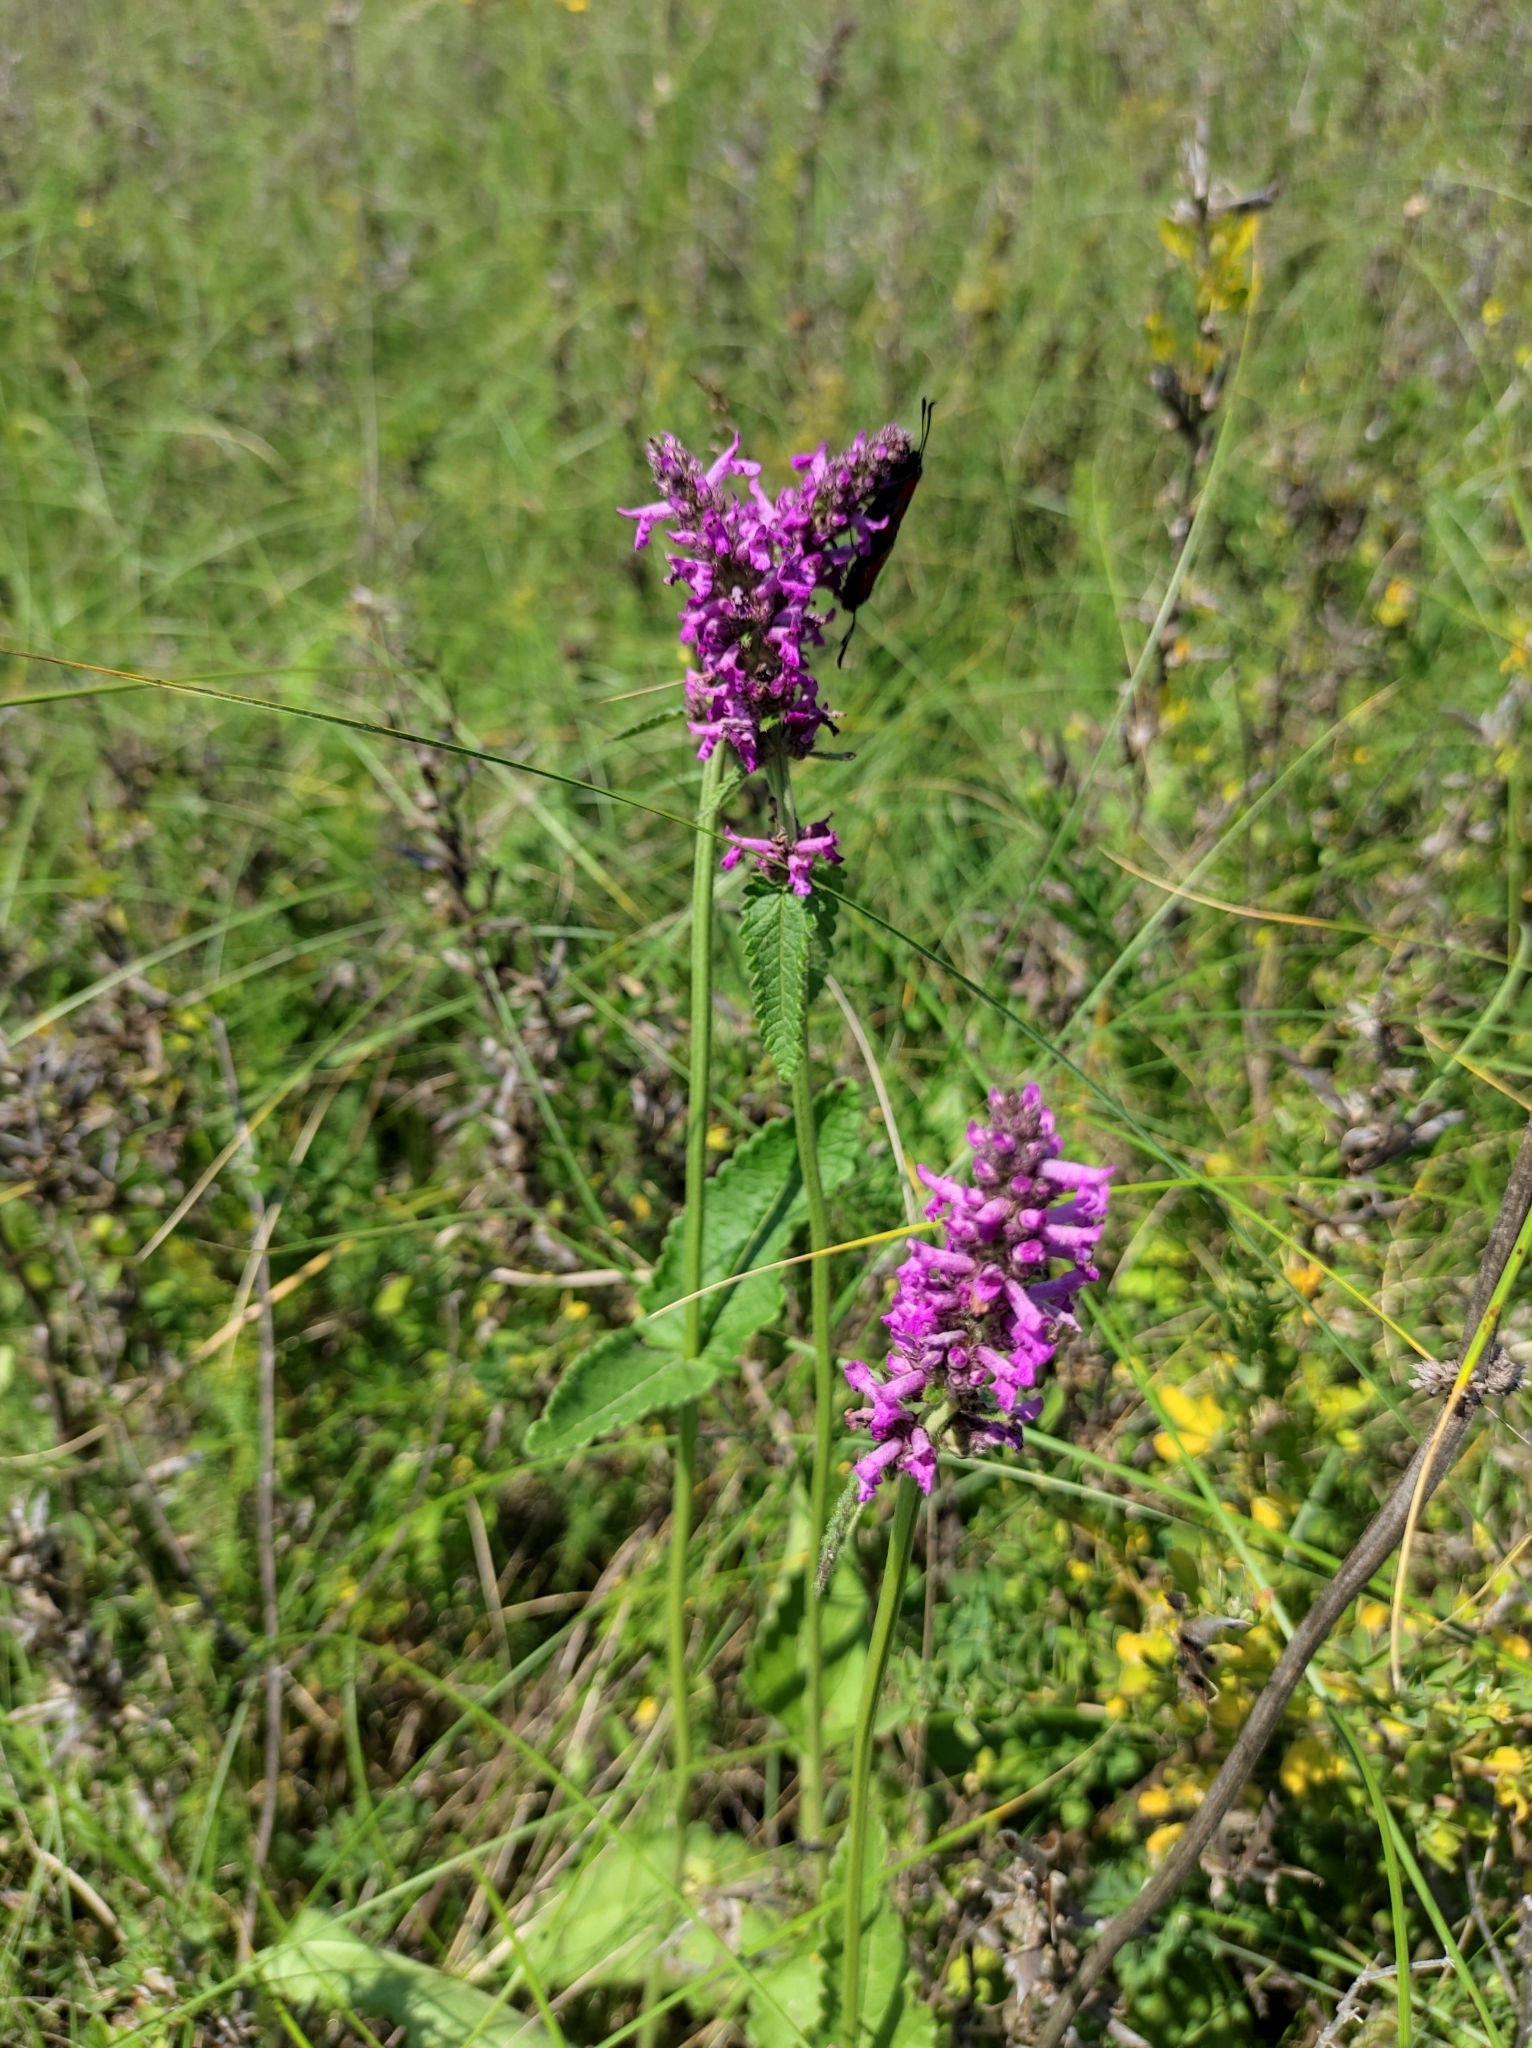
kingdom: Plantae
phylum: Tracheophyta
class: Magnoliopsida
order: Lamiales
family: Lamiaceae
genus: Betonica
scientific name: Betonica officinalis
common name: Bishop's-wort
